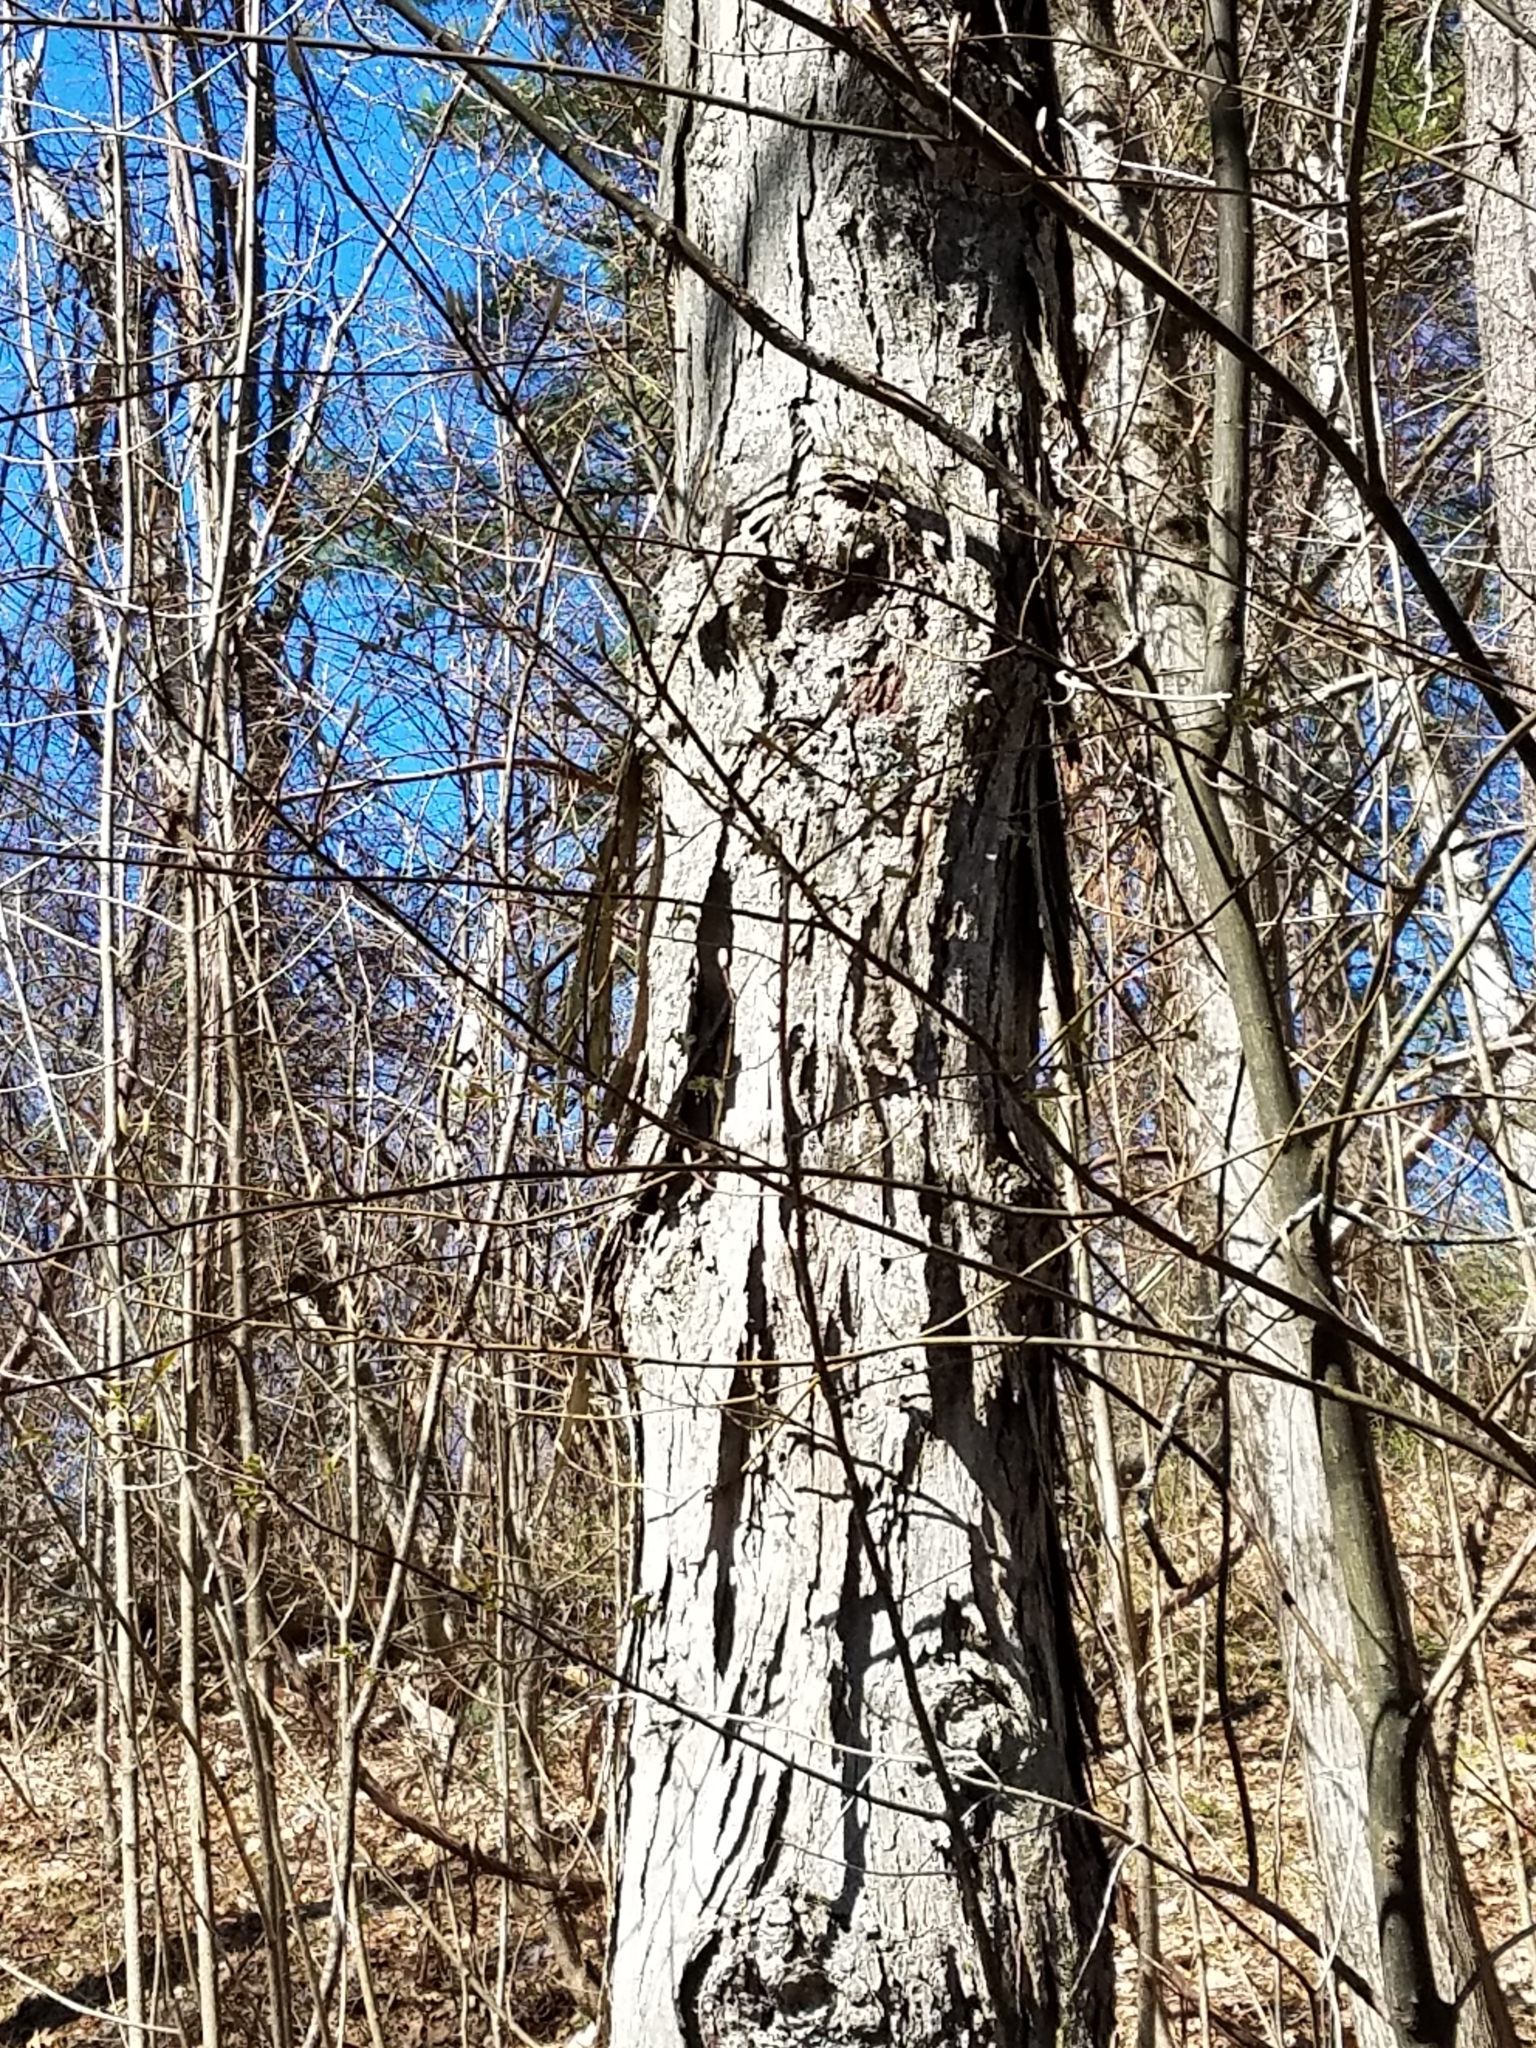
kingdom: Plantae
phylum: Tracheophyta
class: Magnoliopsida
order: Fagales
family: Juglandaceae
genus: Carya
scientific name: Carya ovata
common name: Shagbark hickory
